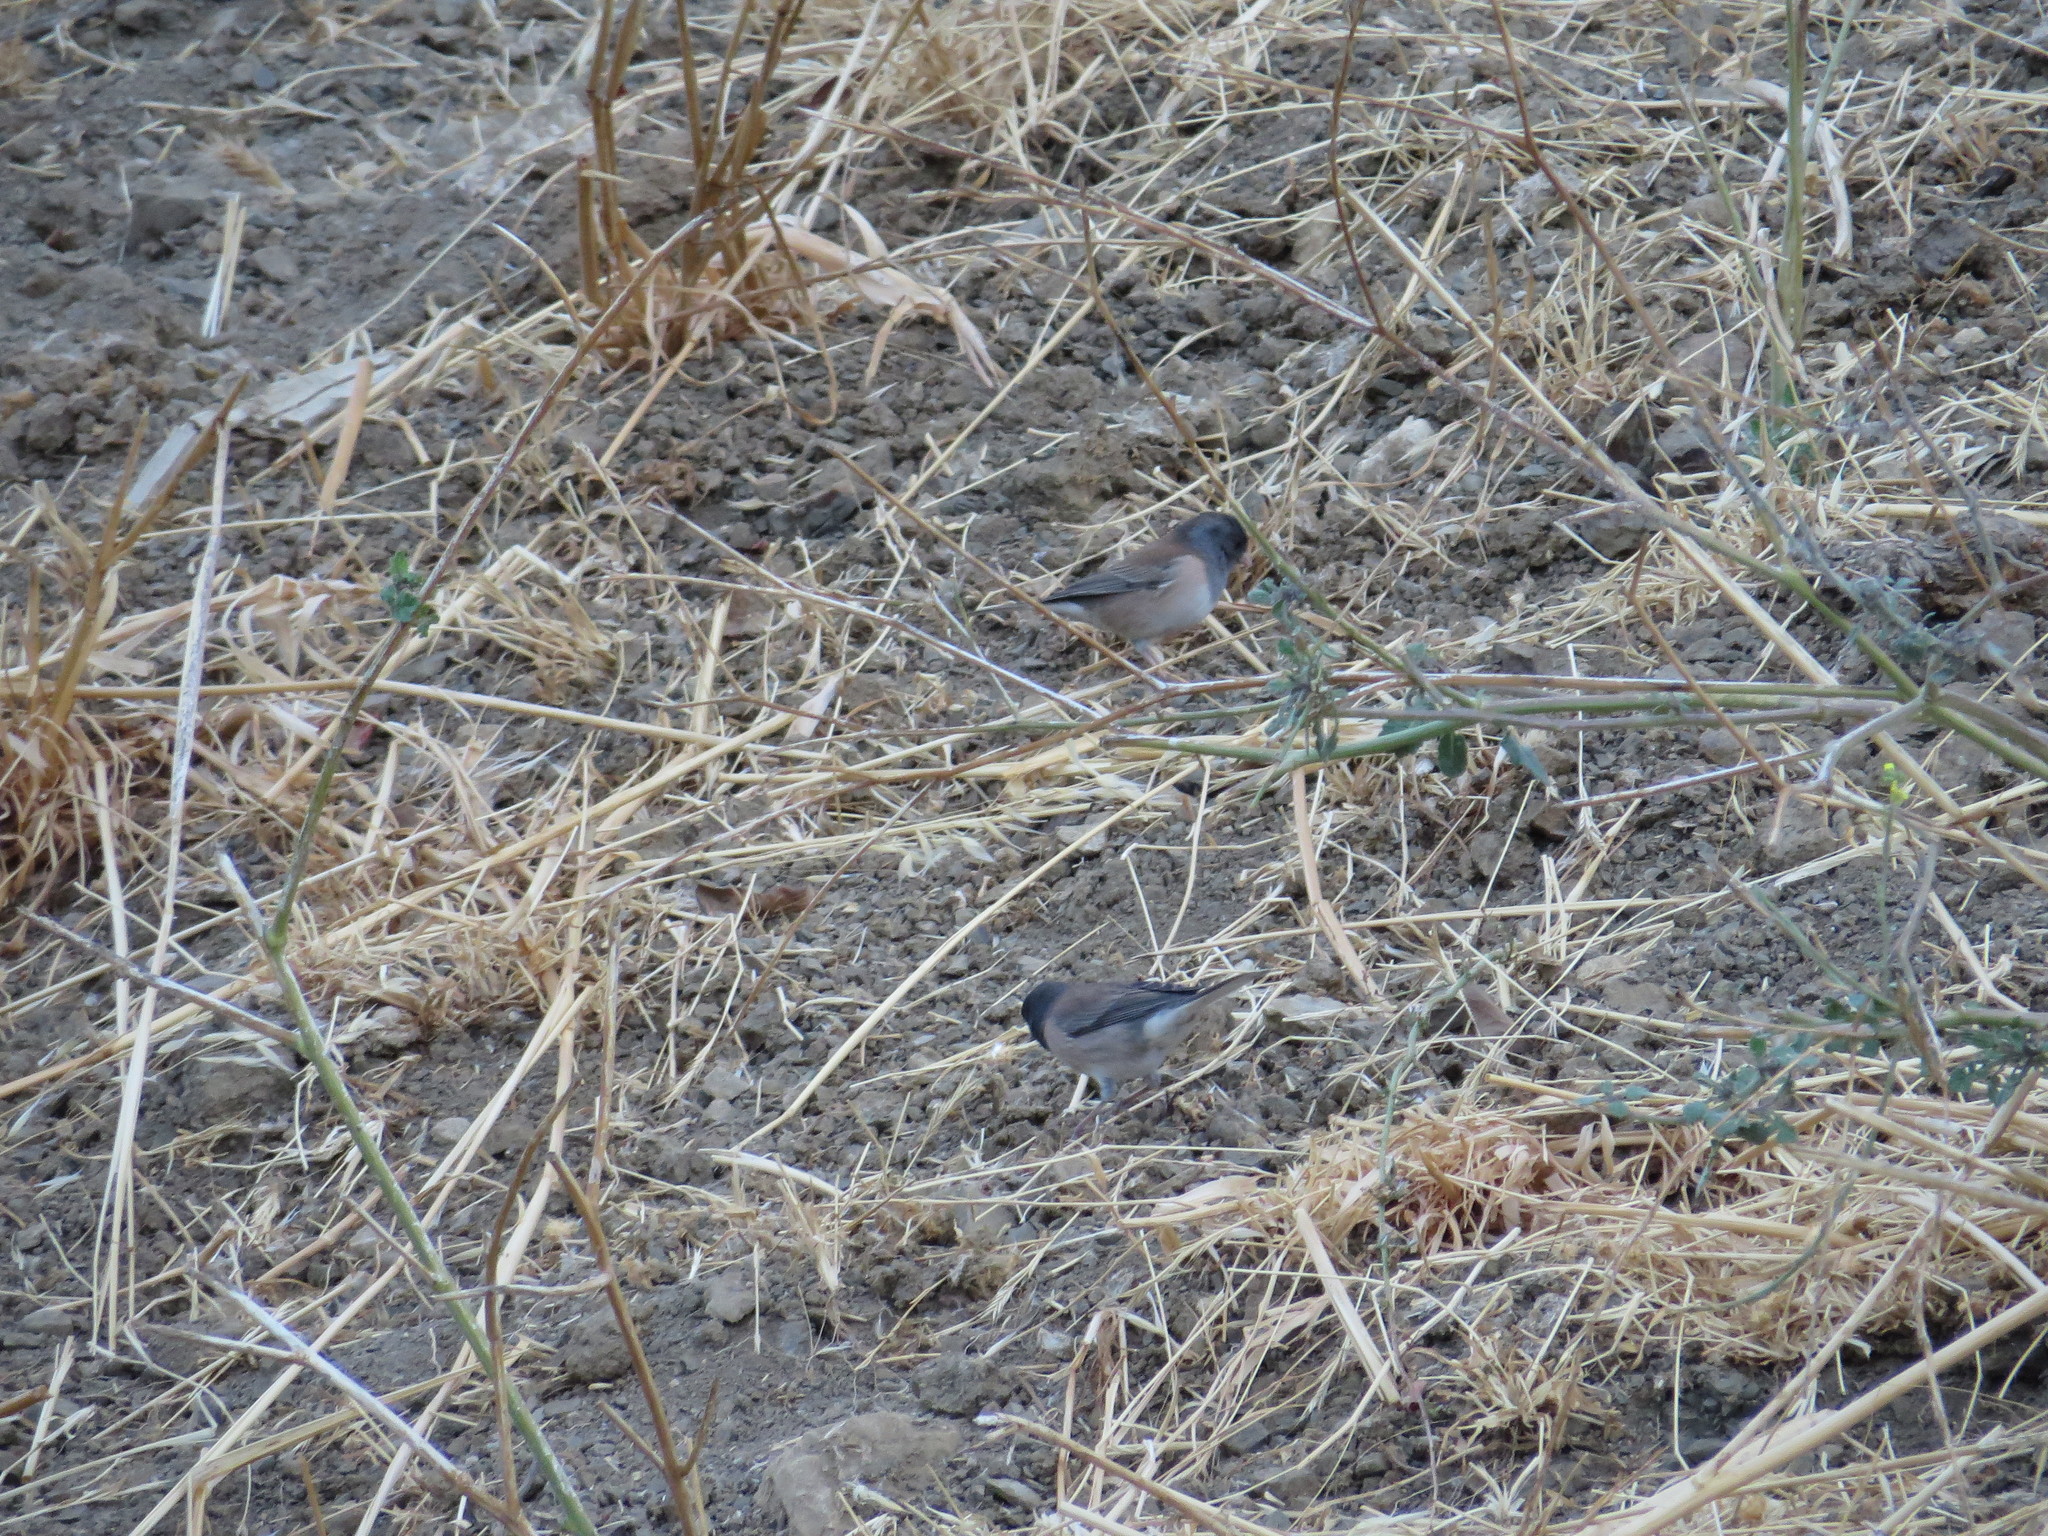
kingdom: Animalia
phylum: Chordata
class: Aves
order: Passeriformes
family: Passerellidae
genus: Junco
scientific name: Junco hyemalis
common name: Dark-eyed junco
